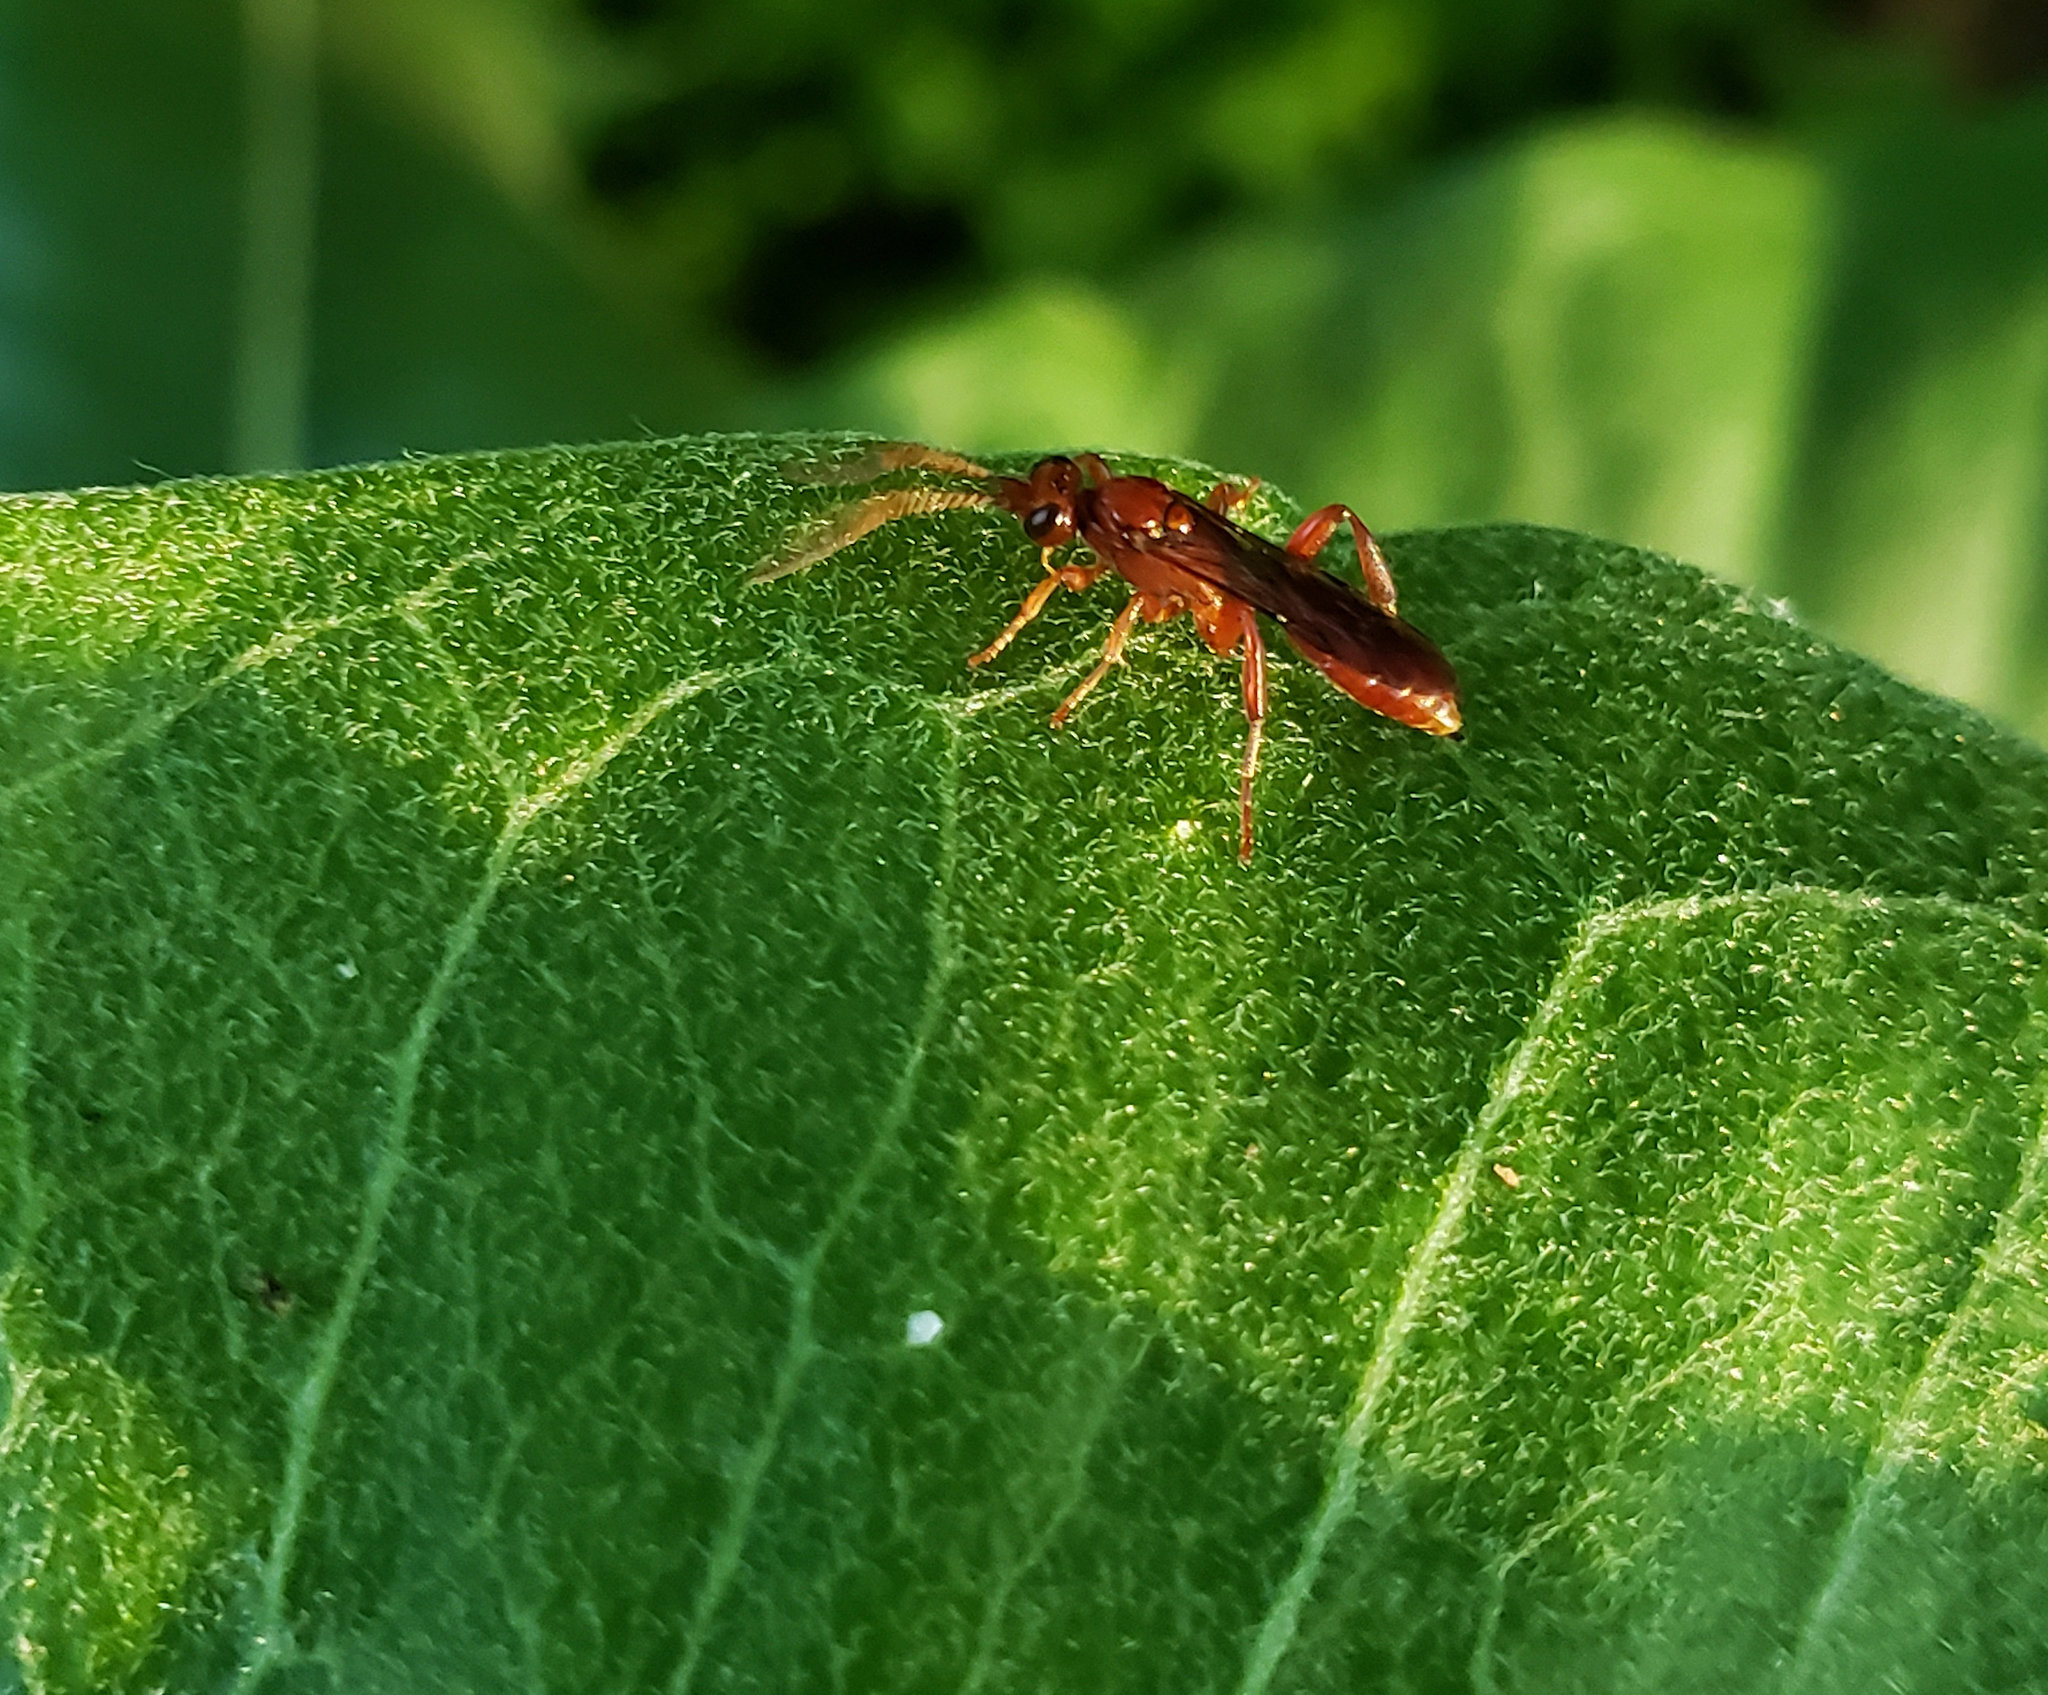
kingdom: Animalia
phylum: Arthropoda
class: Insecta
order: Hymenoptera
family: Ichneumonidae
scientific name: Ichneumonidae
